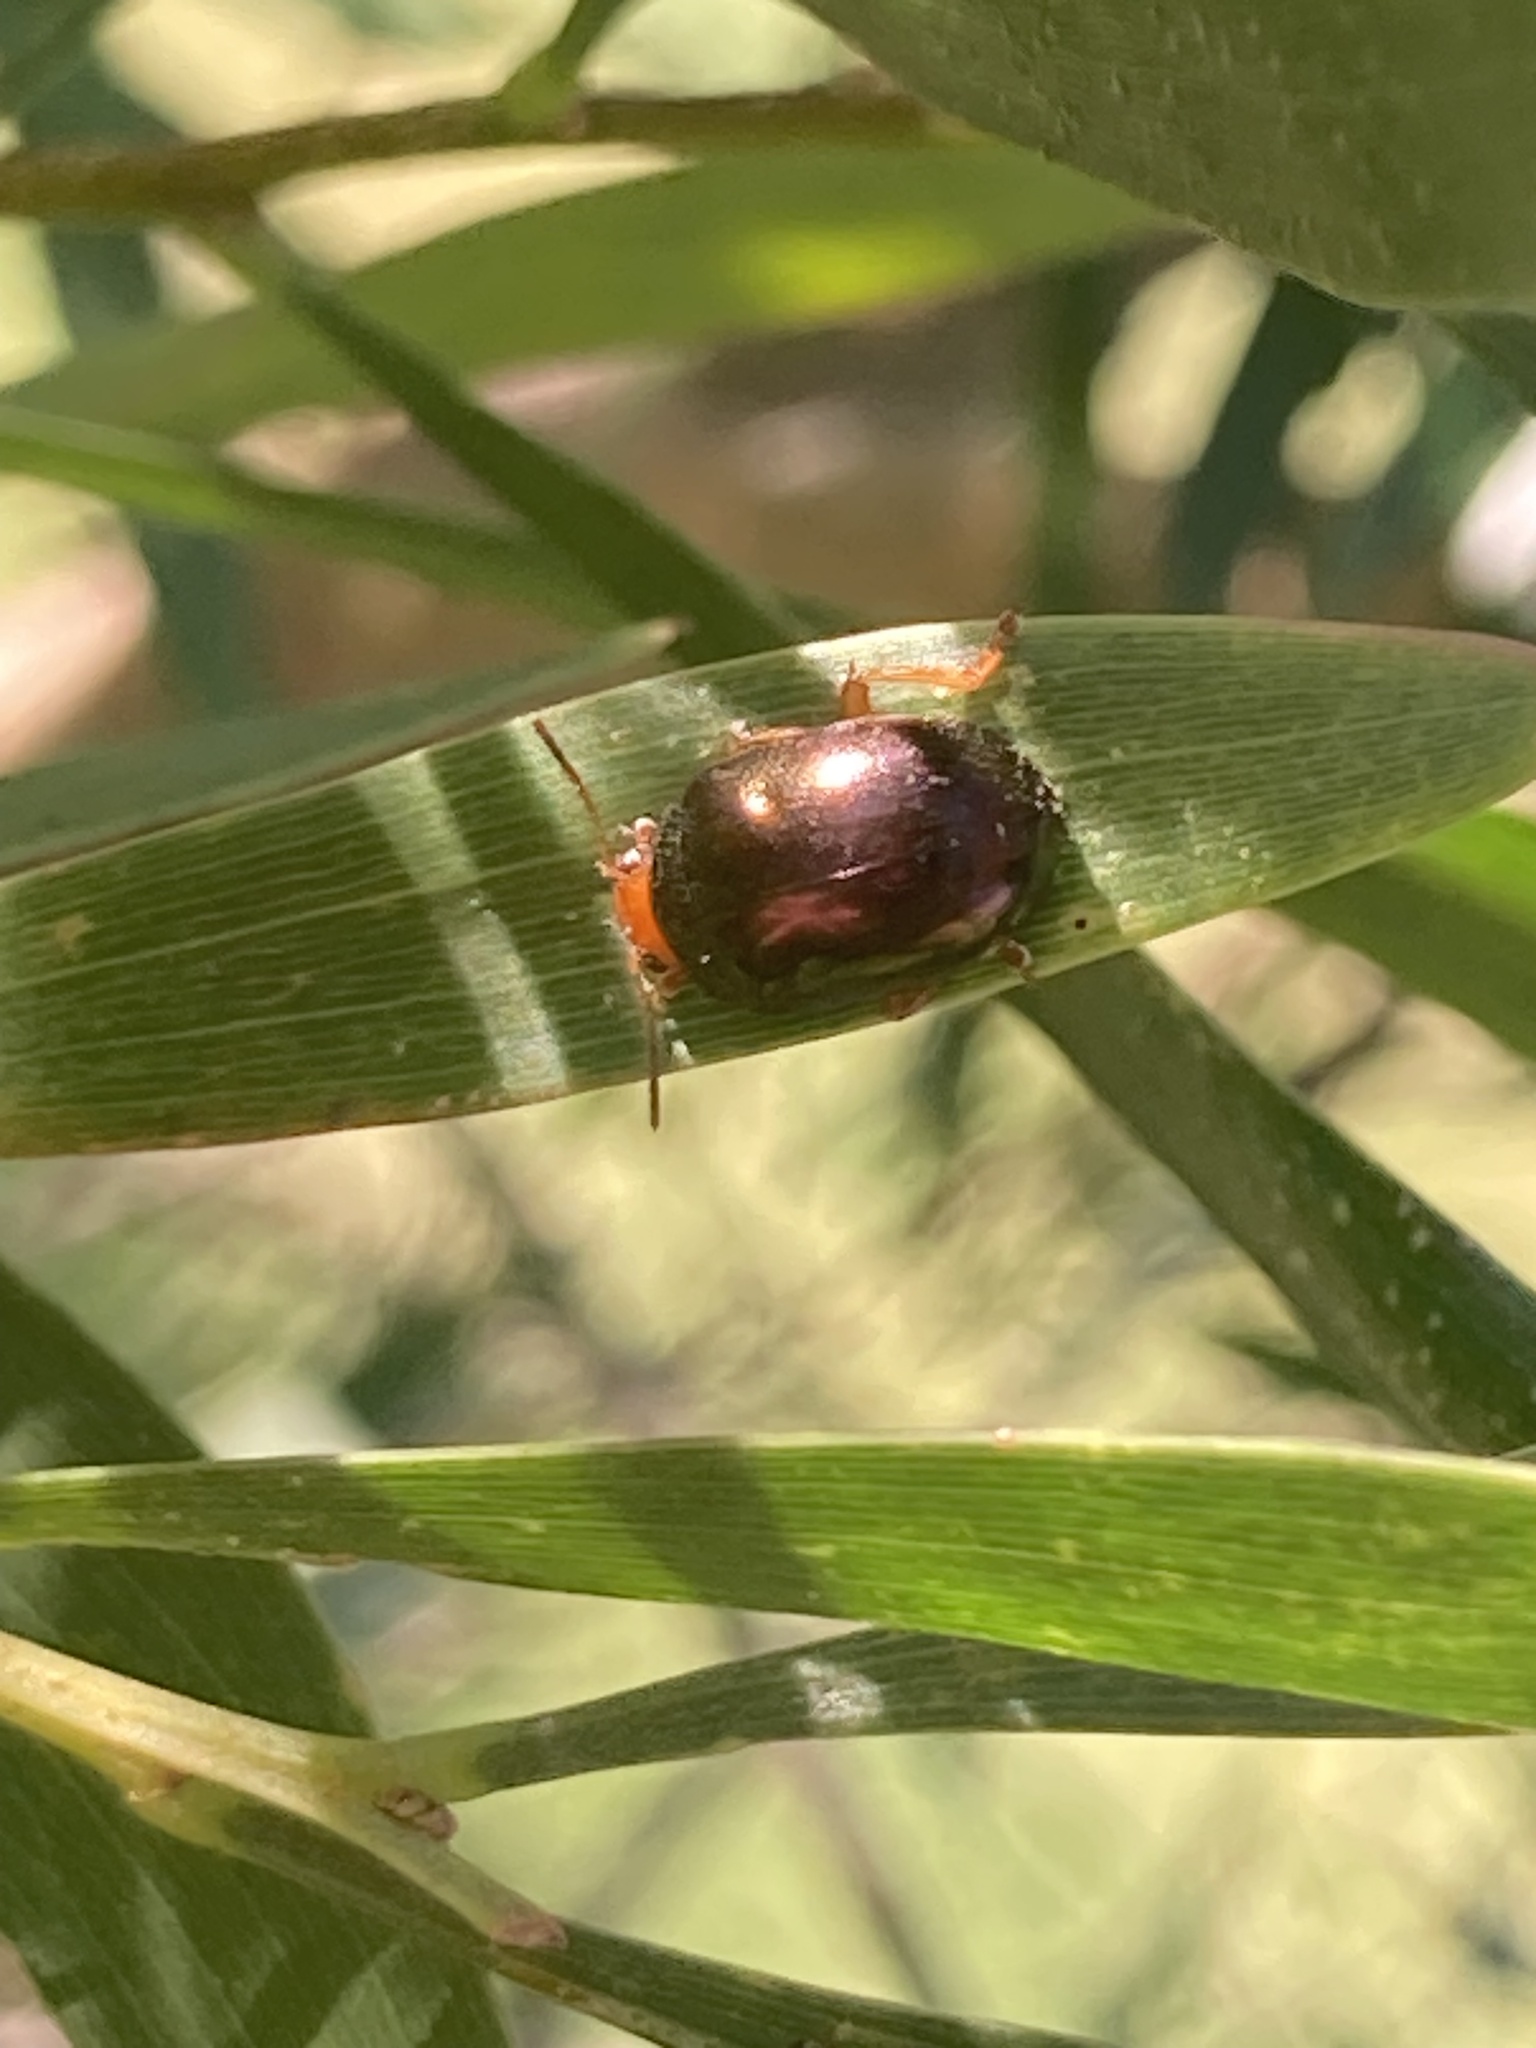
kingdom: Animalia
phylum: Arthropoda
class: Insecta
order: Coleoptera
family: Chrysomelidae
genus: Calomela
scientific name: Calomela
